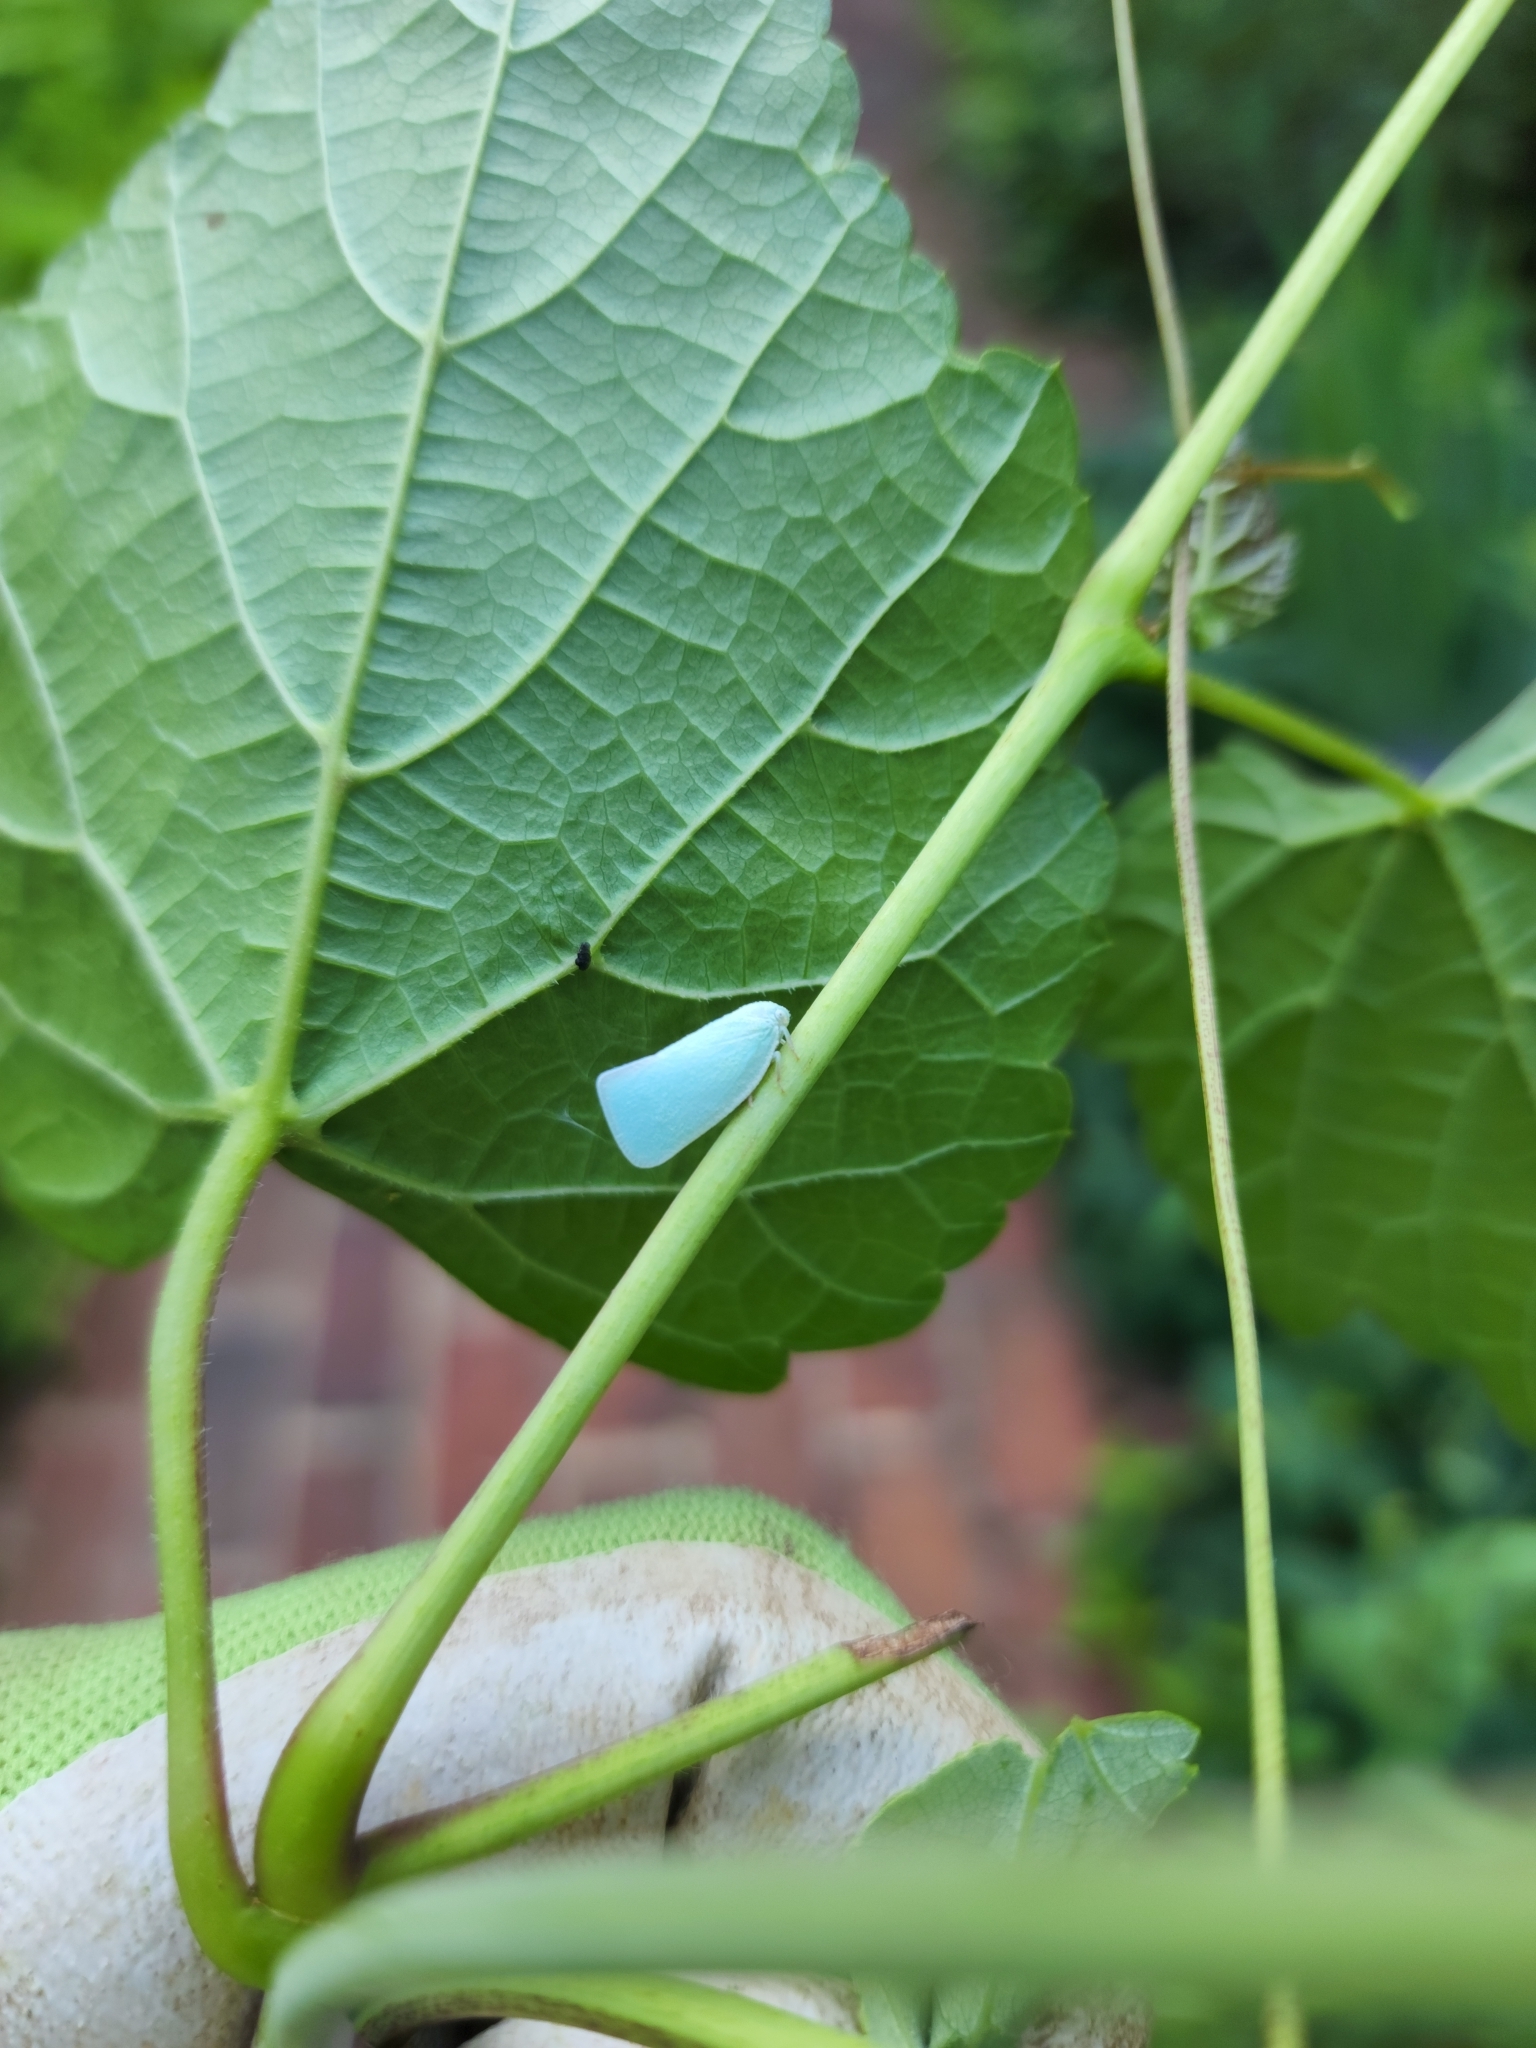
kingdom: Animalia
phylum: Arthropoda
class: Insecta
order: Hemiptera
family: Flatidae
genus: Flatormenis
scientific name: Flatormenis proxima
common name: Northern flatid planthopper
